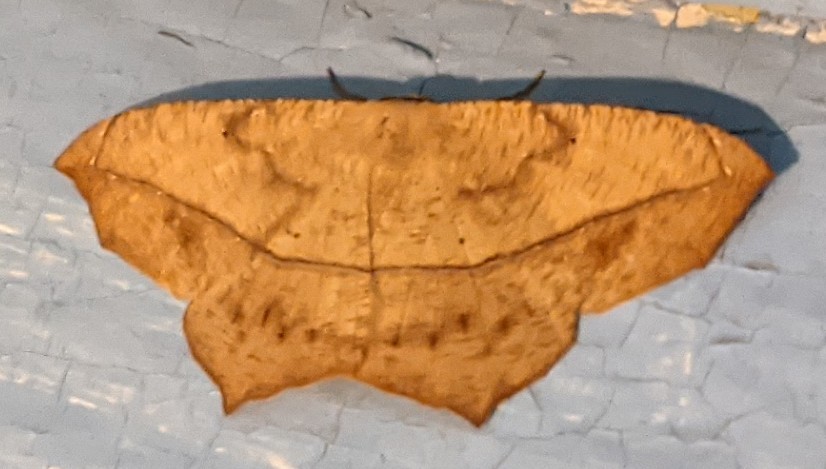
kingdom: Animalia
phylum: Arthropoda
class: Insecta
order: Lepidoptera
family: Geometridae
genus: Prochoerodes
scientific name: Prochoerodes lineola
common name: Large maple spanworm
